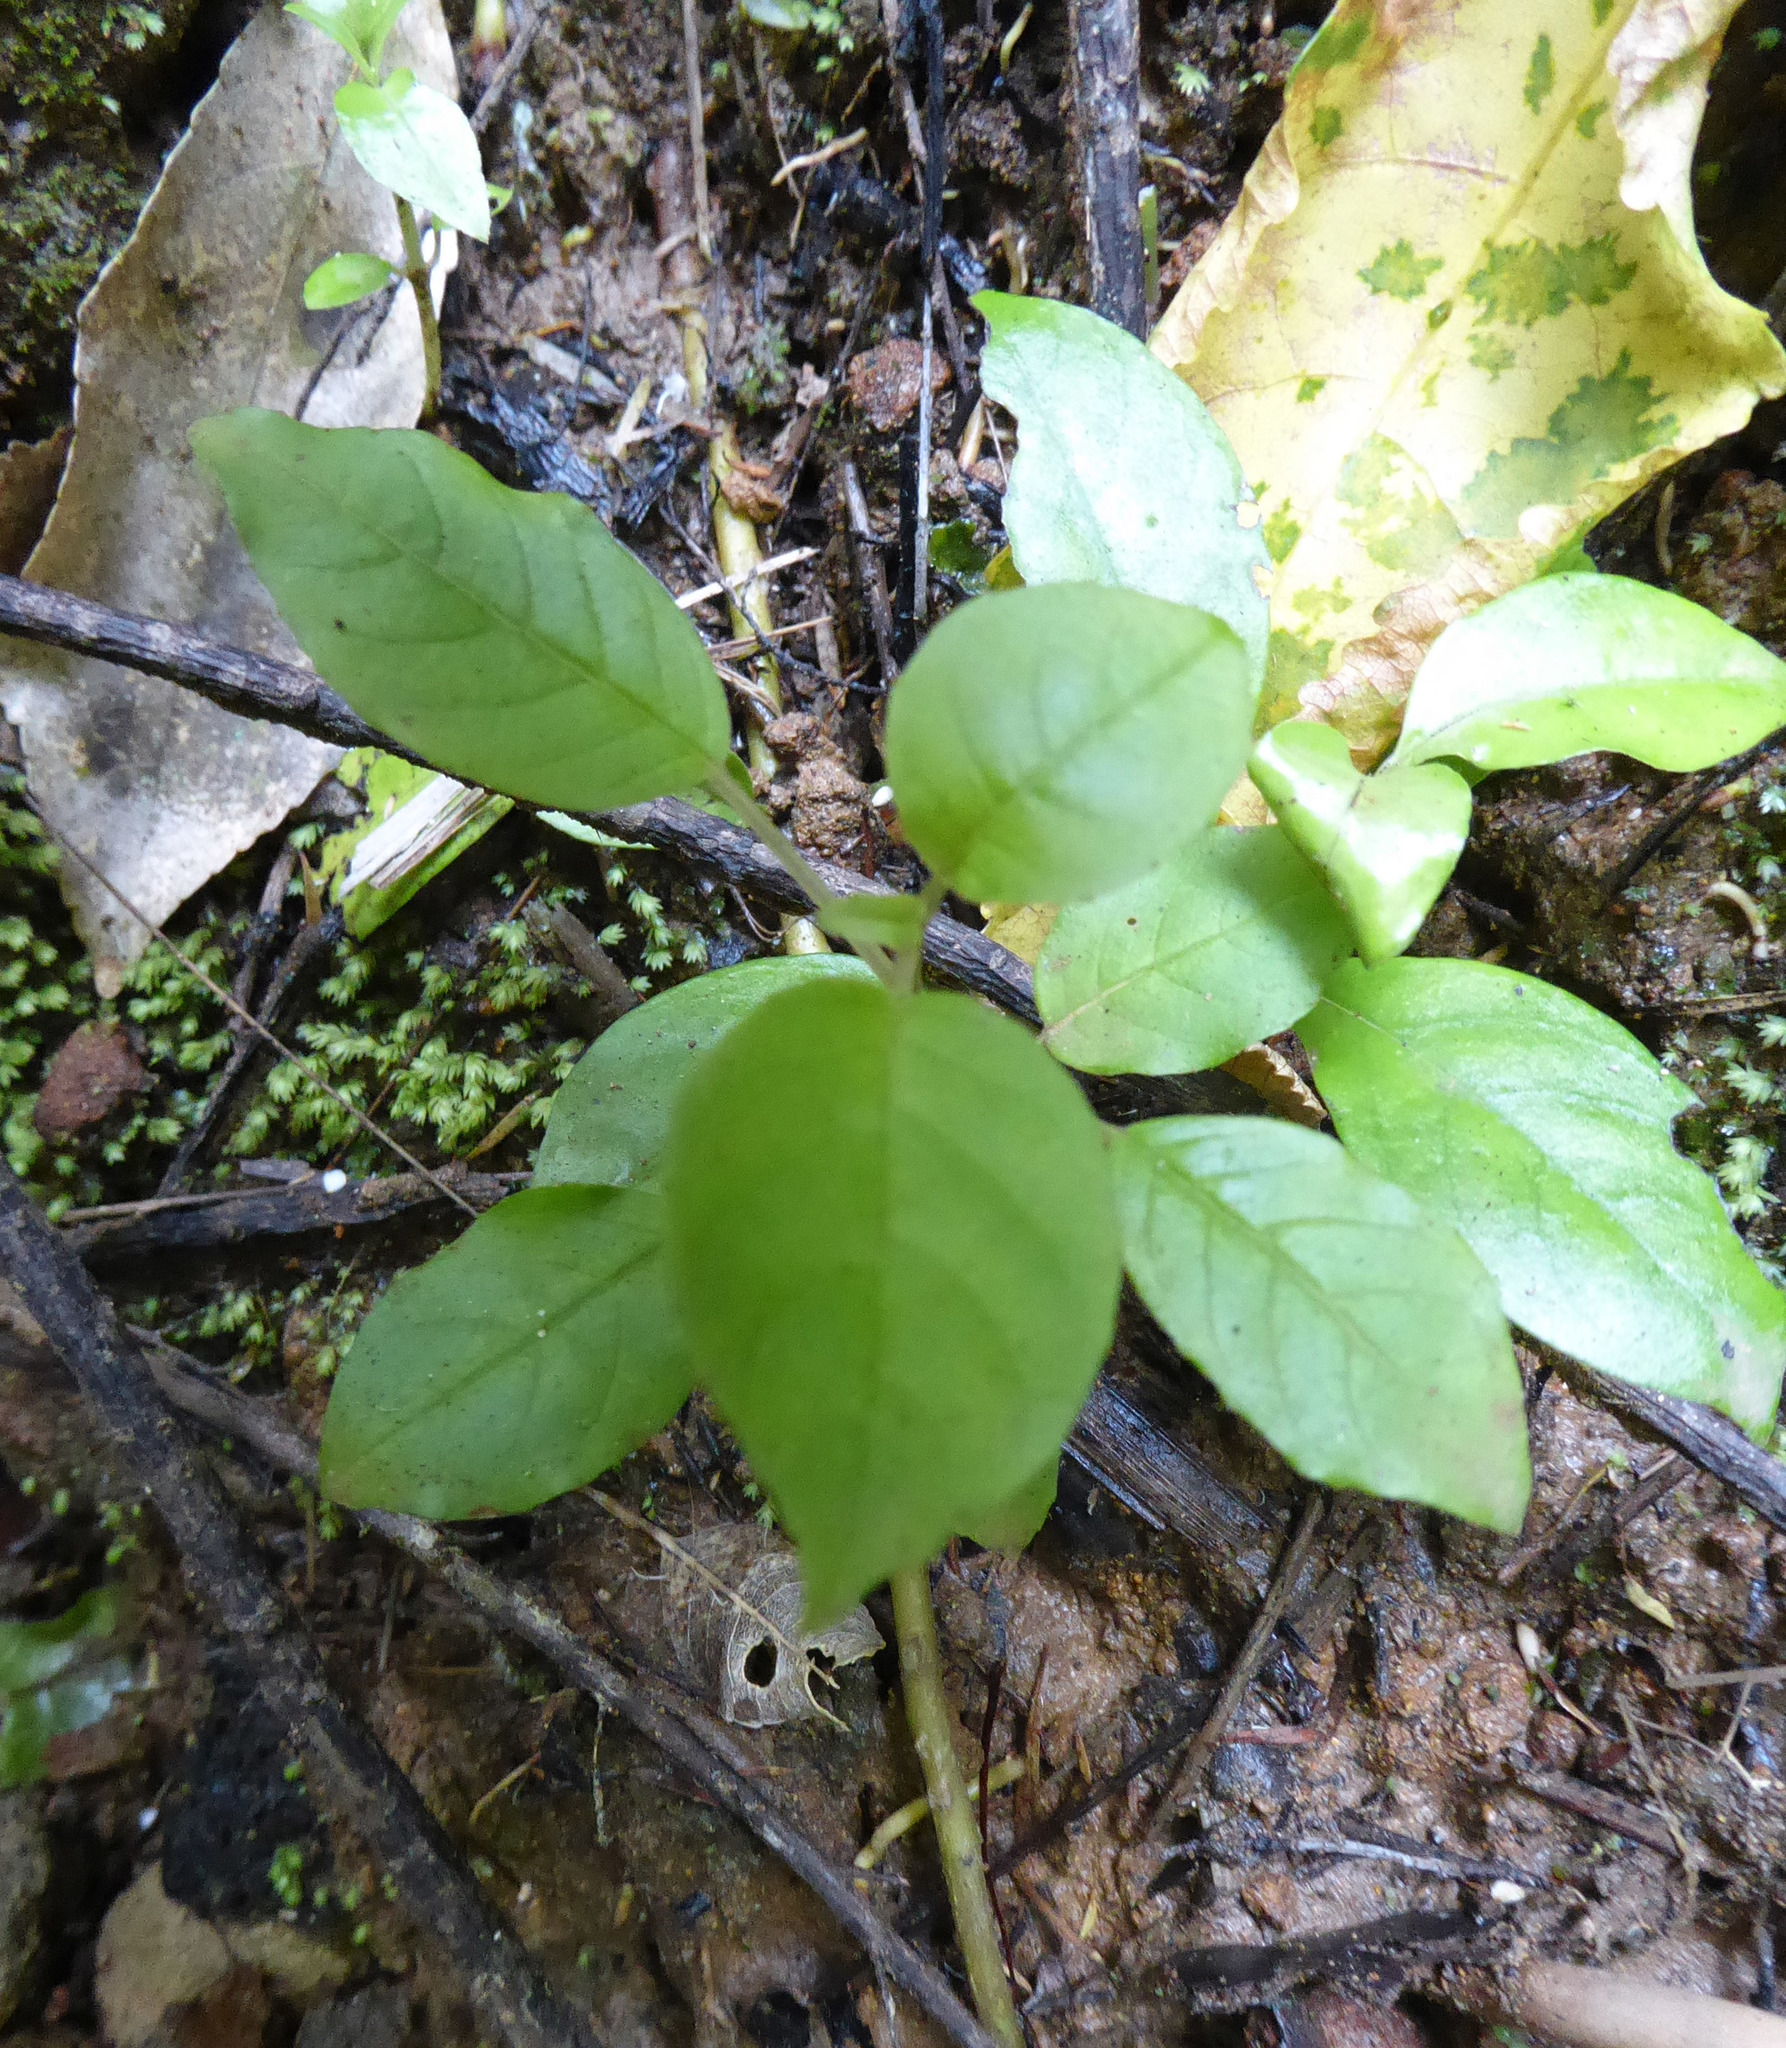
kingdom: Plantae
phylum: Tracheophyta
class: Magnoliopsida
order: Myrtales
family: Onagraceae
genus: Fuchsia
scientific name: Fuchsia excorticata
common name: Tree fuchsia
